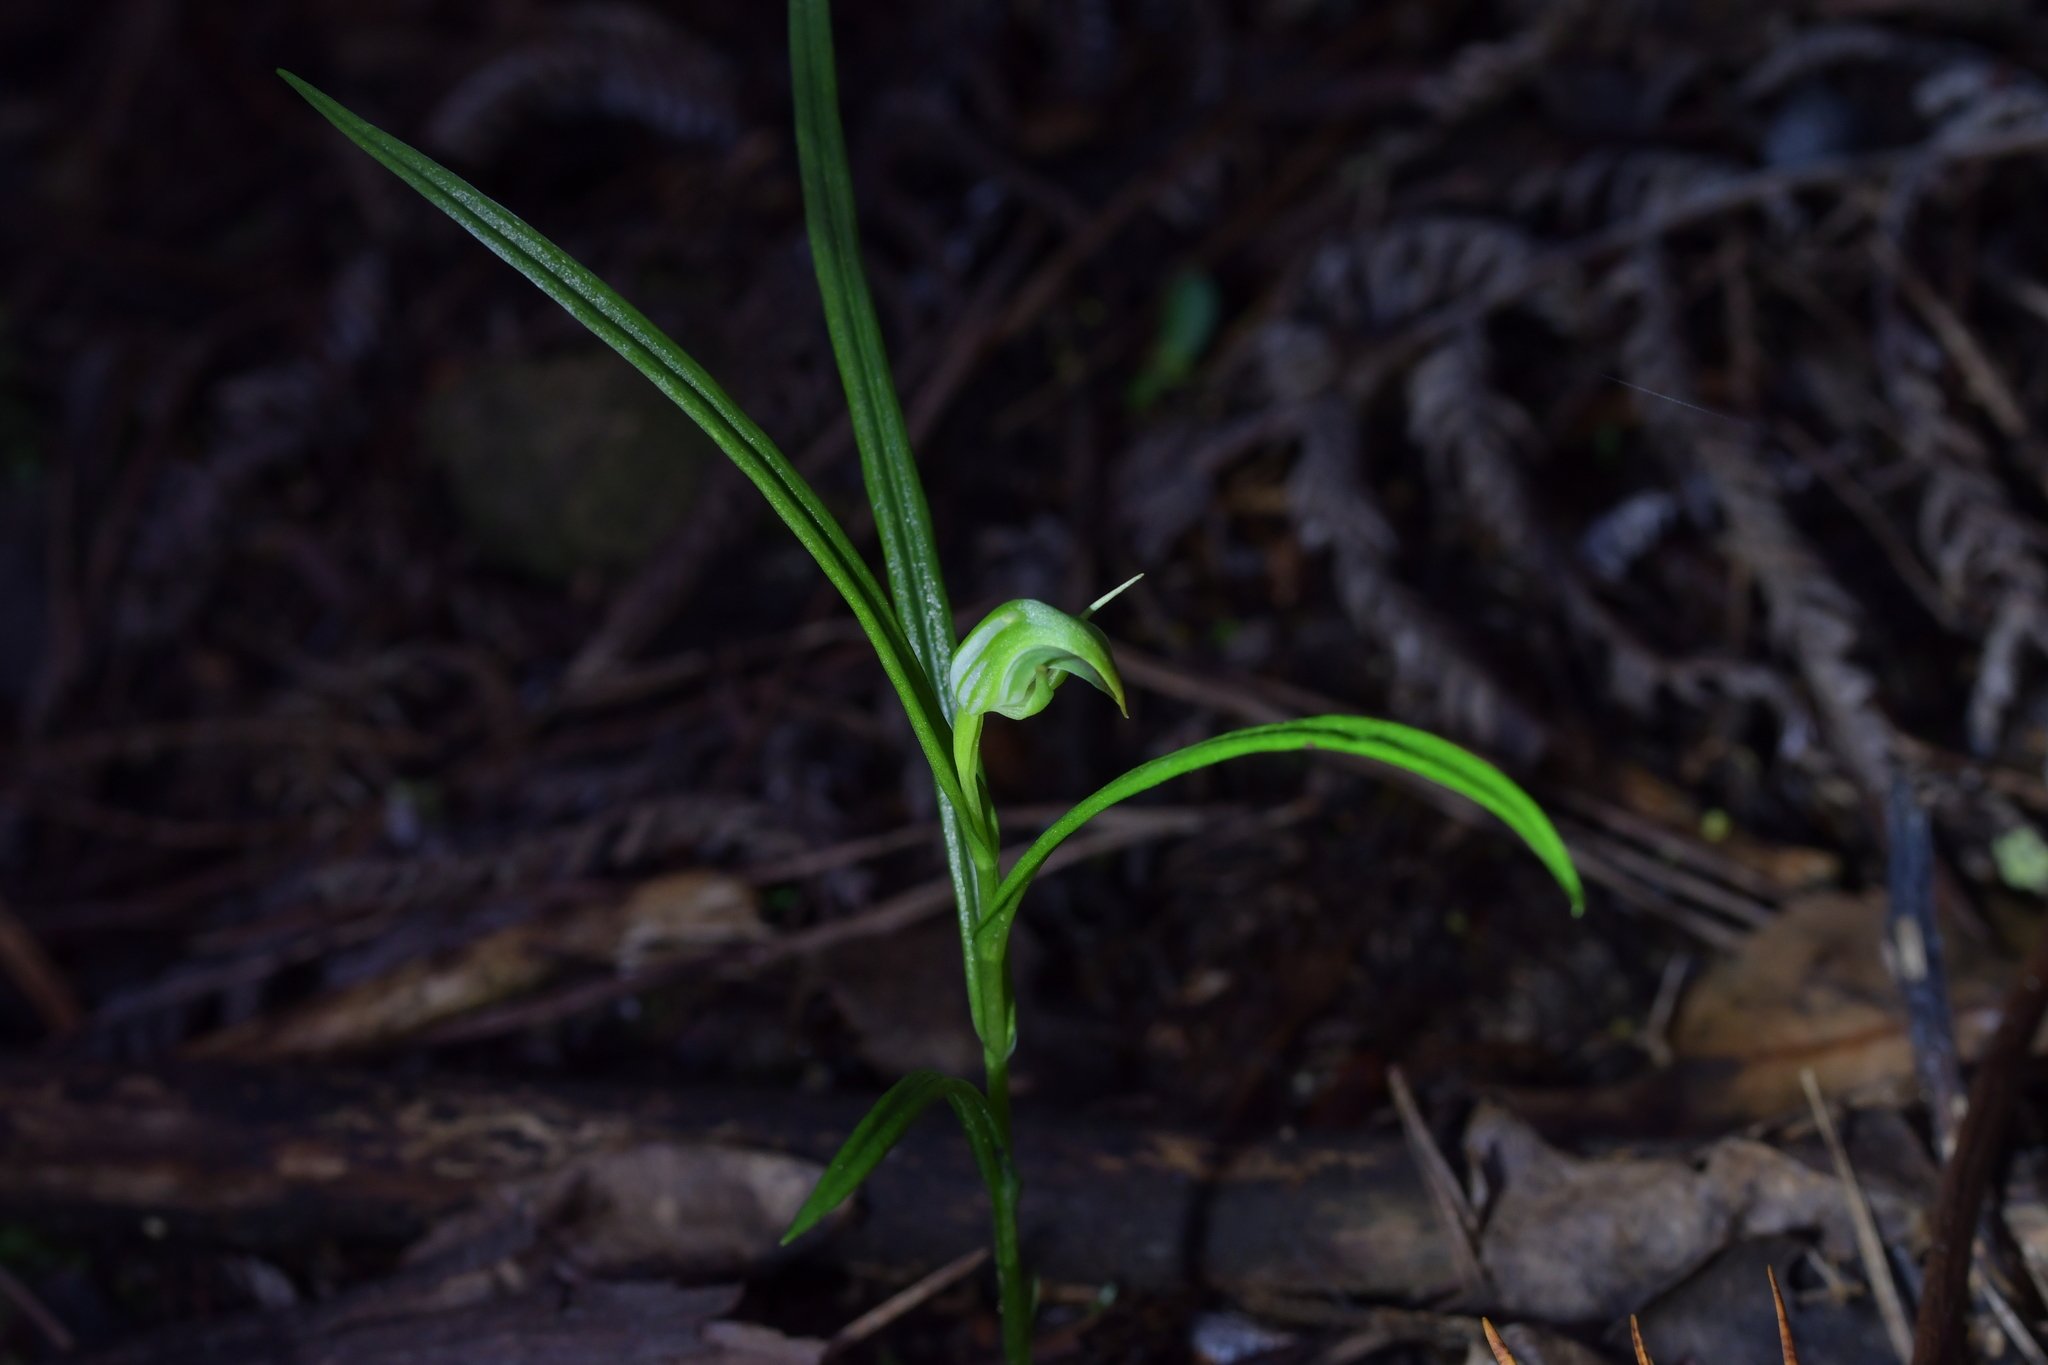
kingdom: Plantae
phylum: Tracheophyta
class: Liliopsida
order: Asparagales
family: Orchidaceae
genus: Pterostylis
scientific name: Pterostylis graminea
